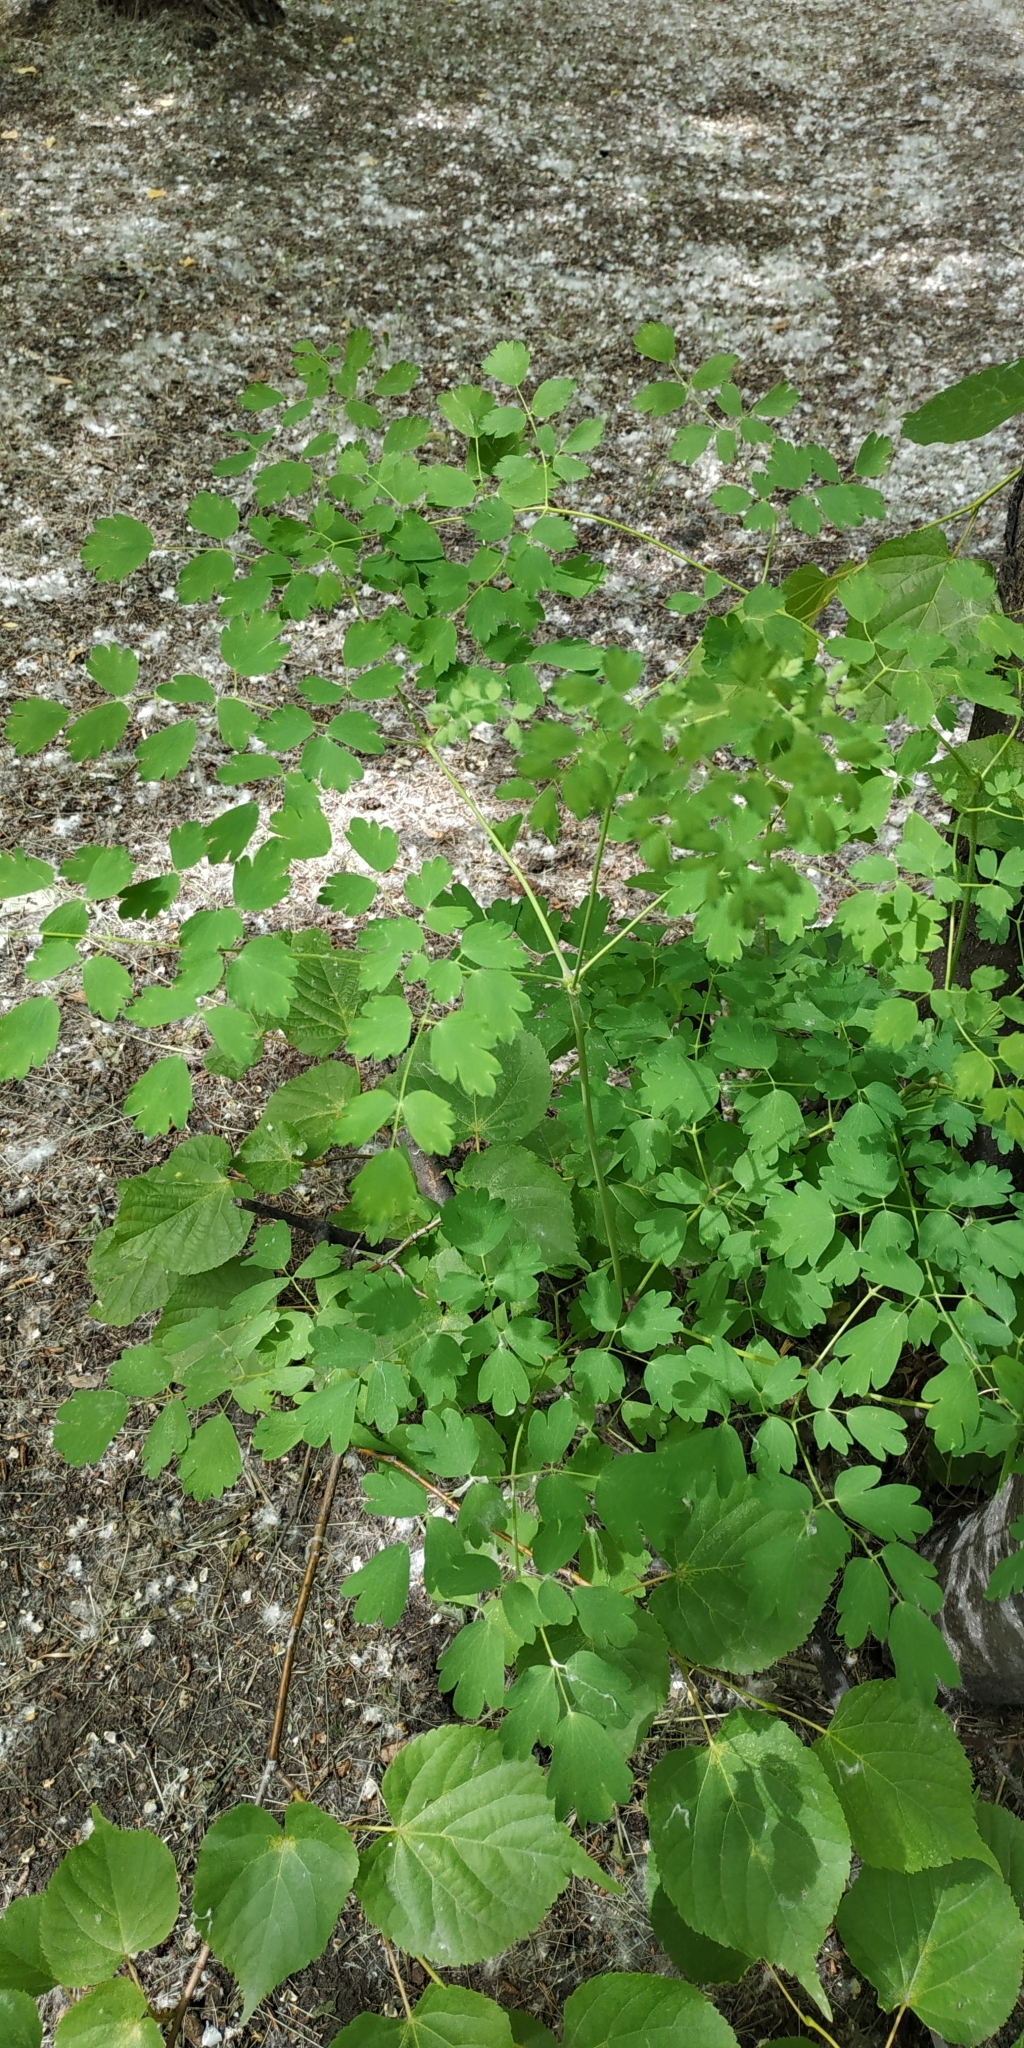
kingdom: Plantae
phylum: Tracheophyta
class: Magnoliopsida
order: Ranunculales
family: Ranunculaceae
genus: Thalictrum
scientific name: Thalictrum minus
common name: Lesser meadow-rue
